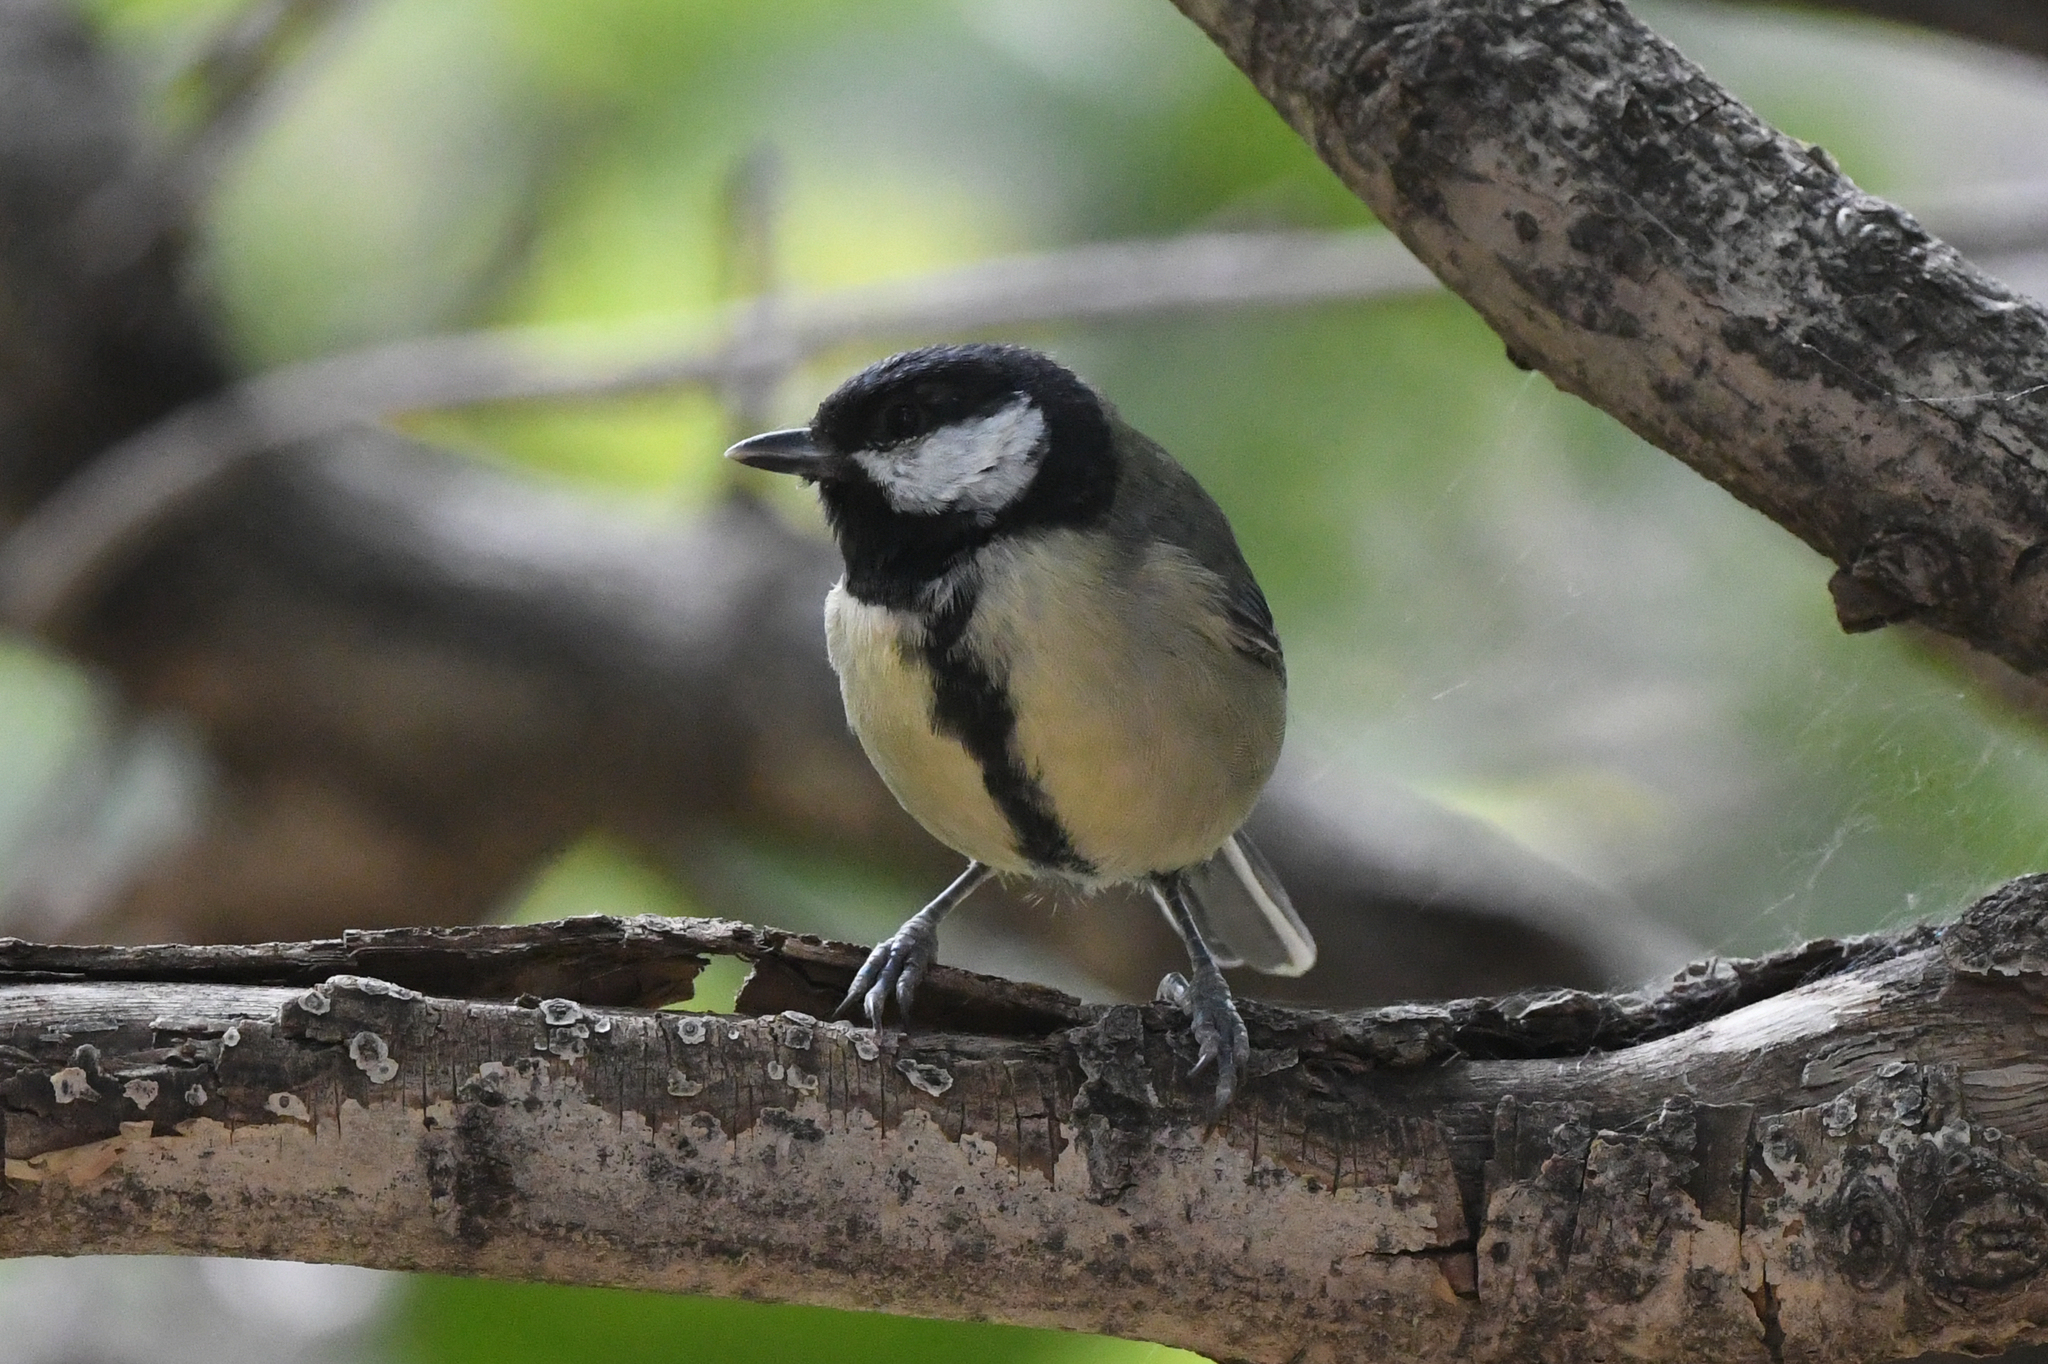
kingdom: Animalia
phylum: Chordata
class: Aves
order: Passeriformes
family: Paridae
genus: Parus
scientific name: Parus major
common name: Great tit
